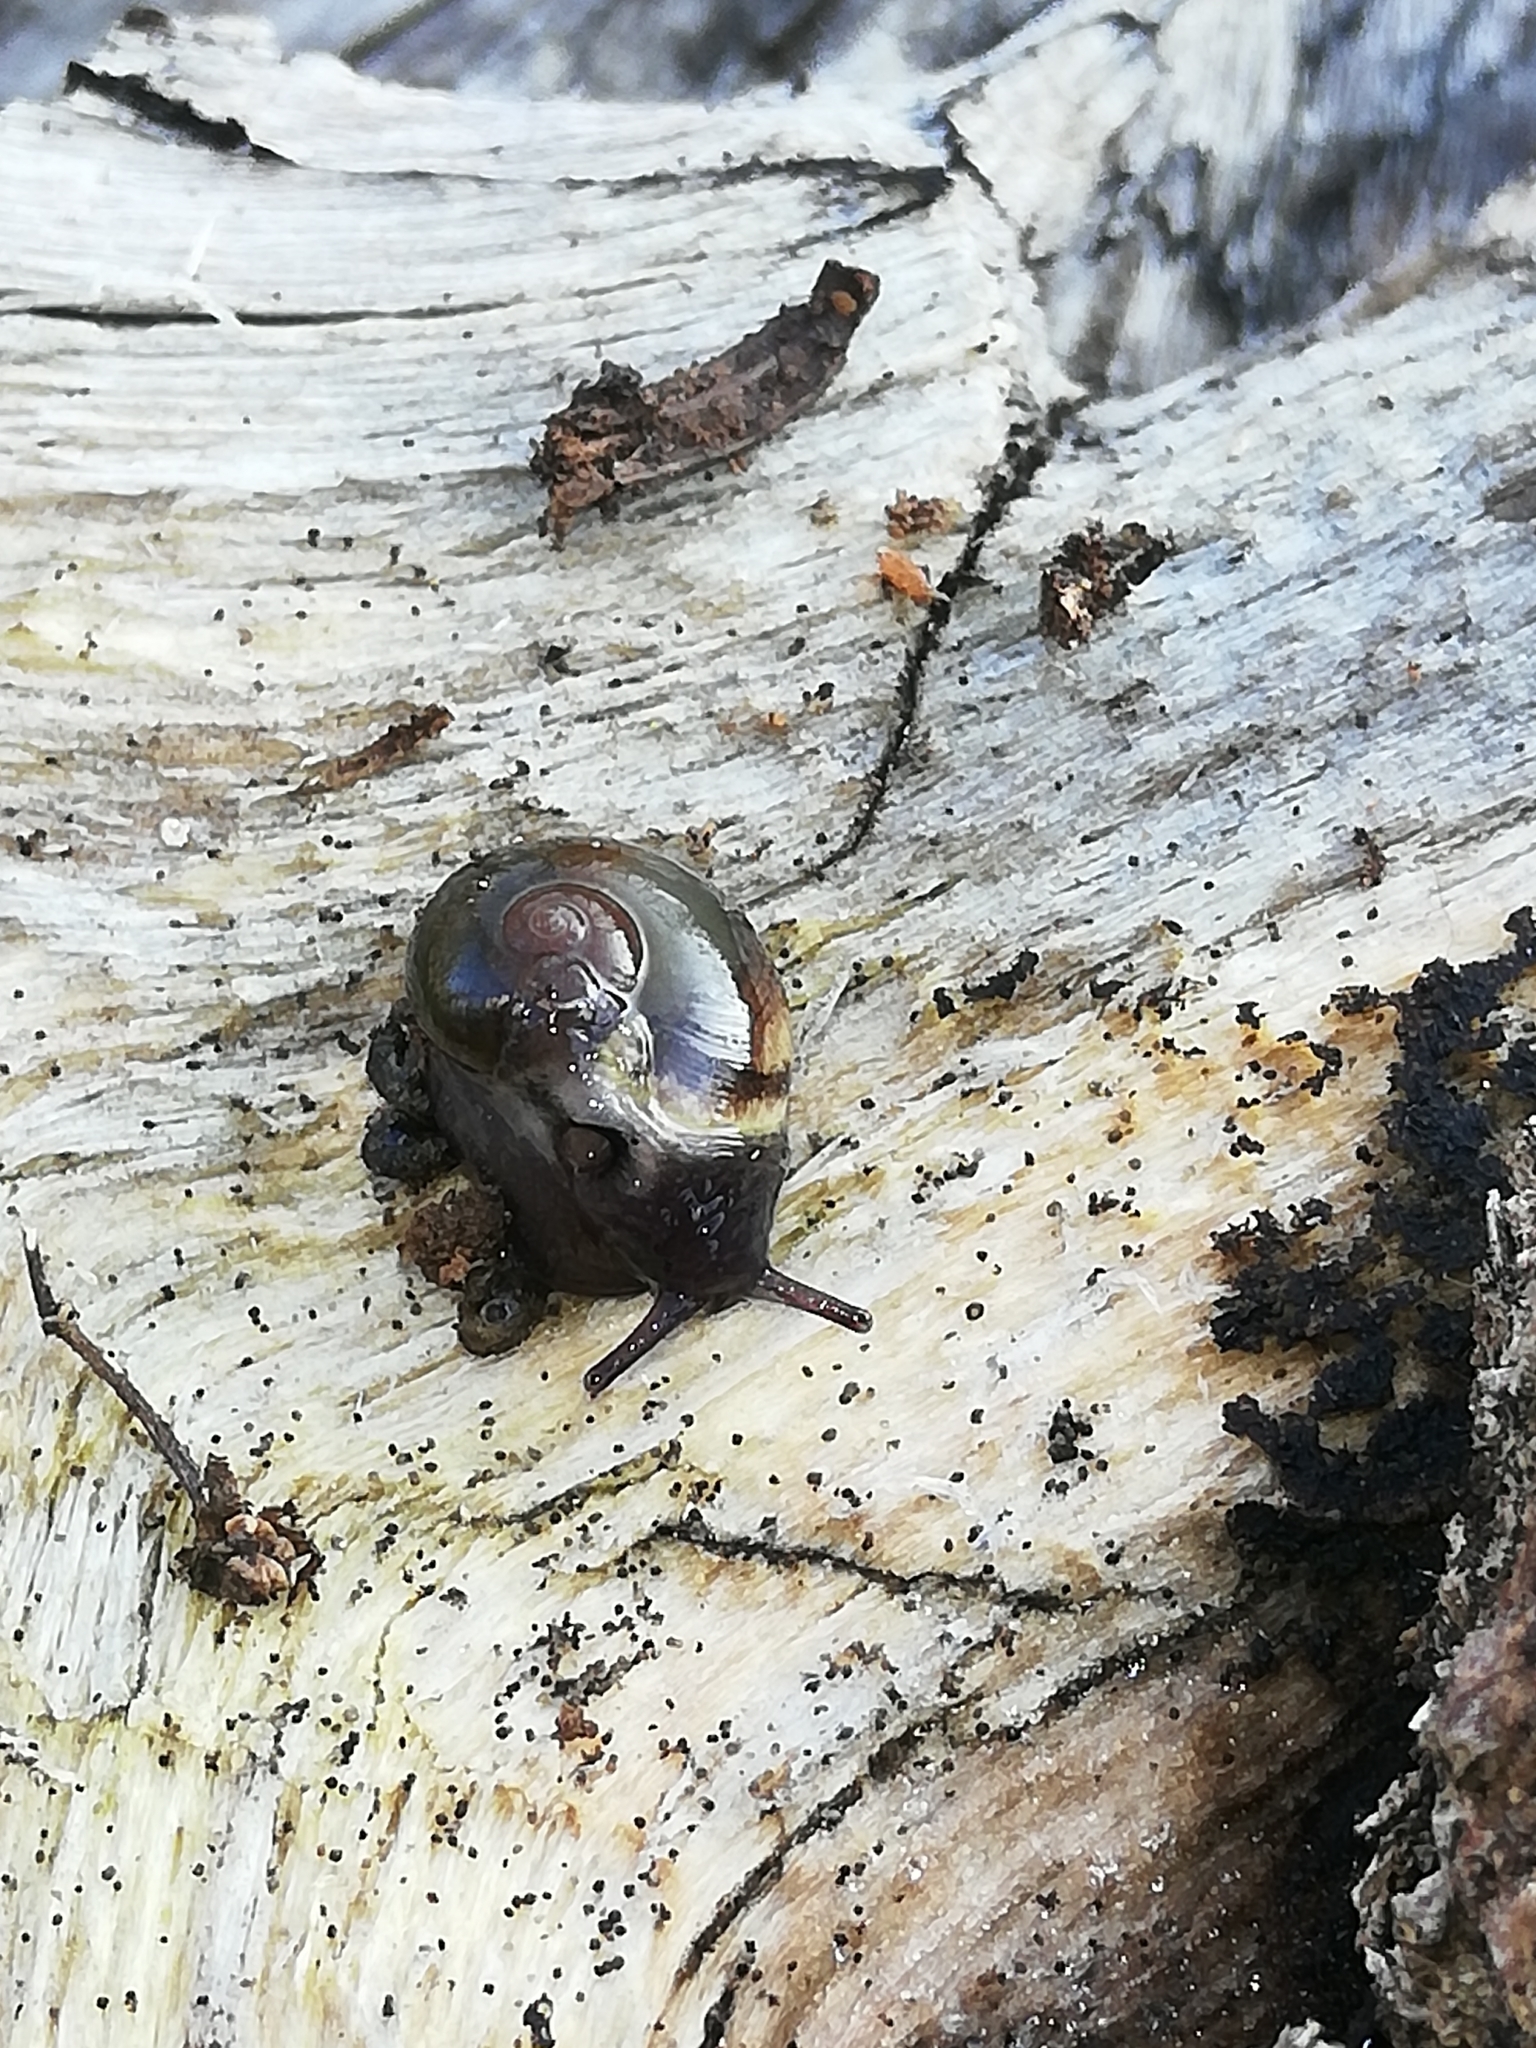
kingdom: Animalia
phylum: Mollusca
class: Gastropoda
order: Stylommatophora
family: Vitrinidae
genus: Vitrina
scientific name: Vitrina pellucida
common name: Pellucid glass snail
